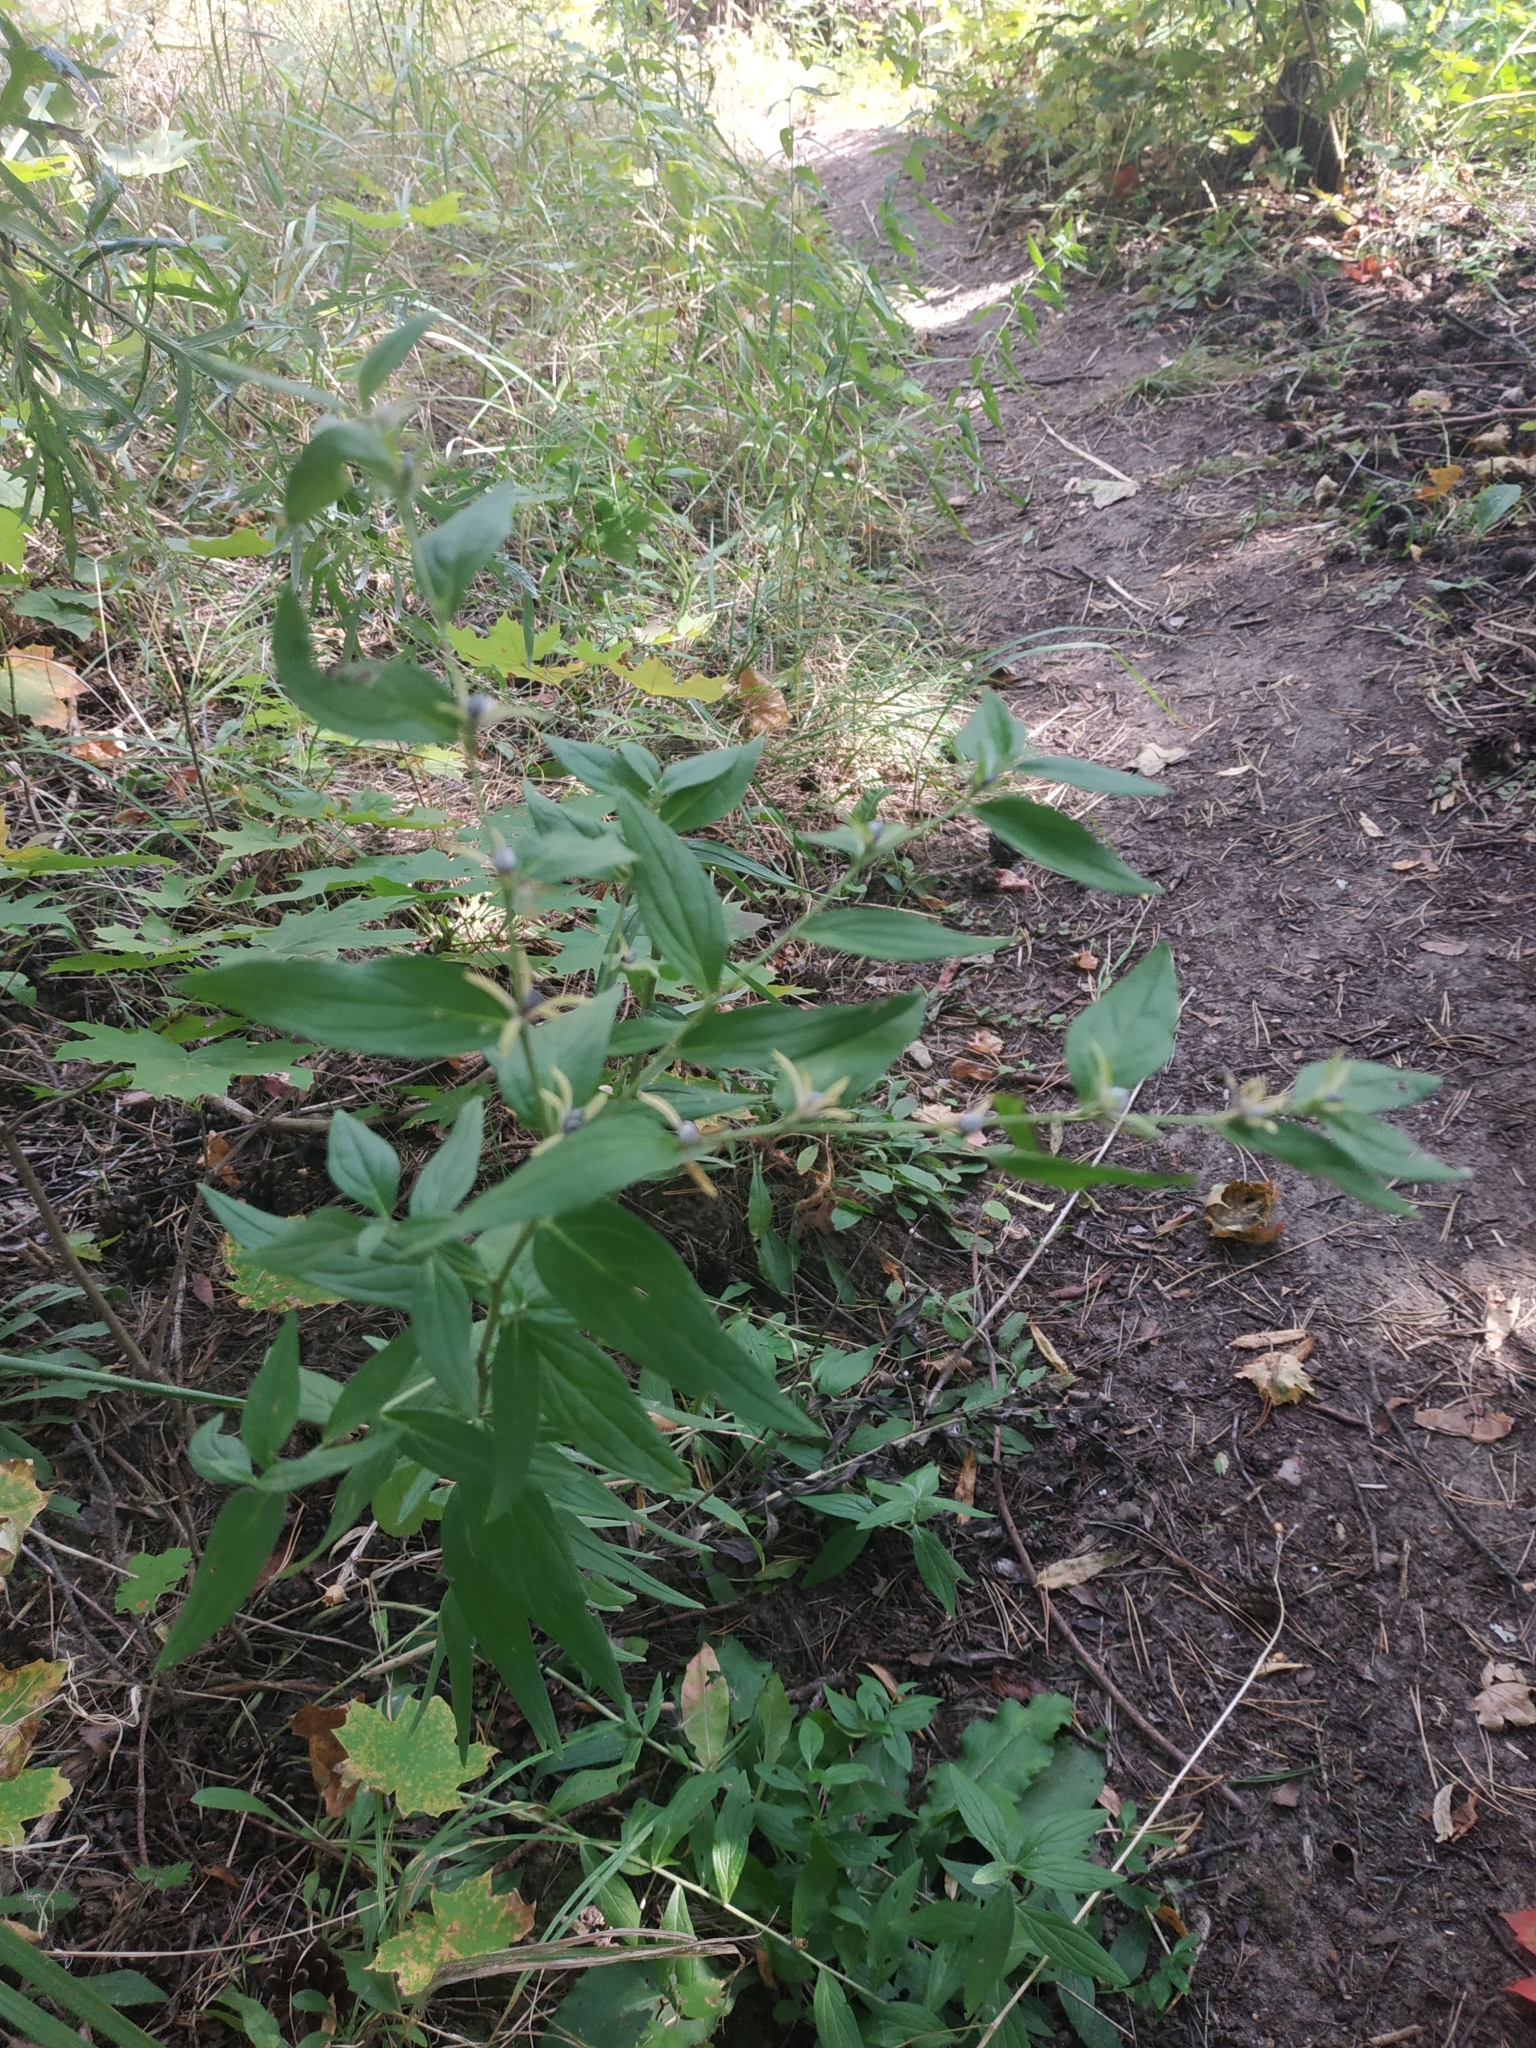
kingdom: Plantae
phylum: Tracheophyta
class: Magnoliopsida
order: Boraginales
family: Boraginaceae
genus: Lithospermum
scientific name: Lithospermum officinale
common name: Common gromwell
